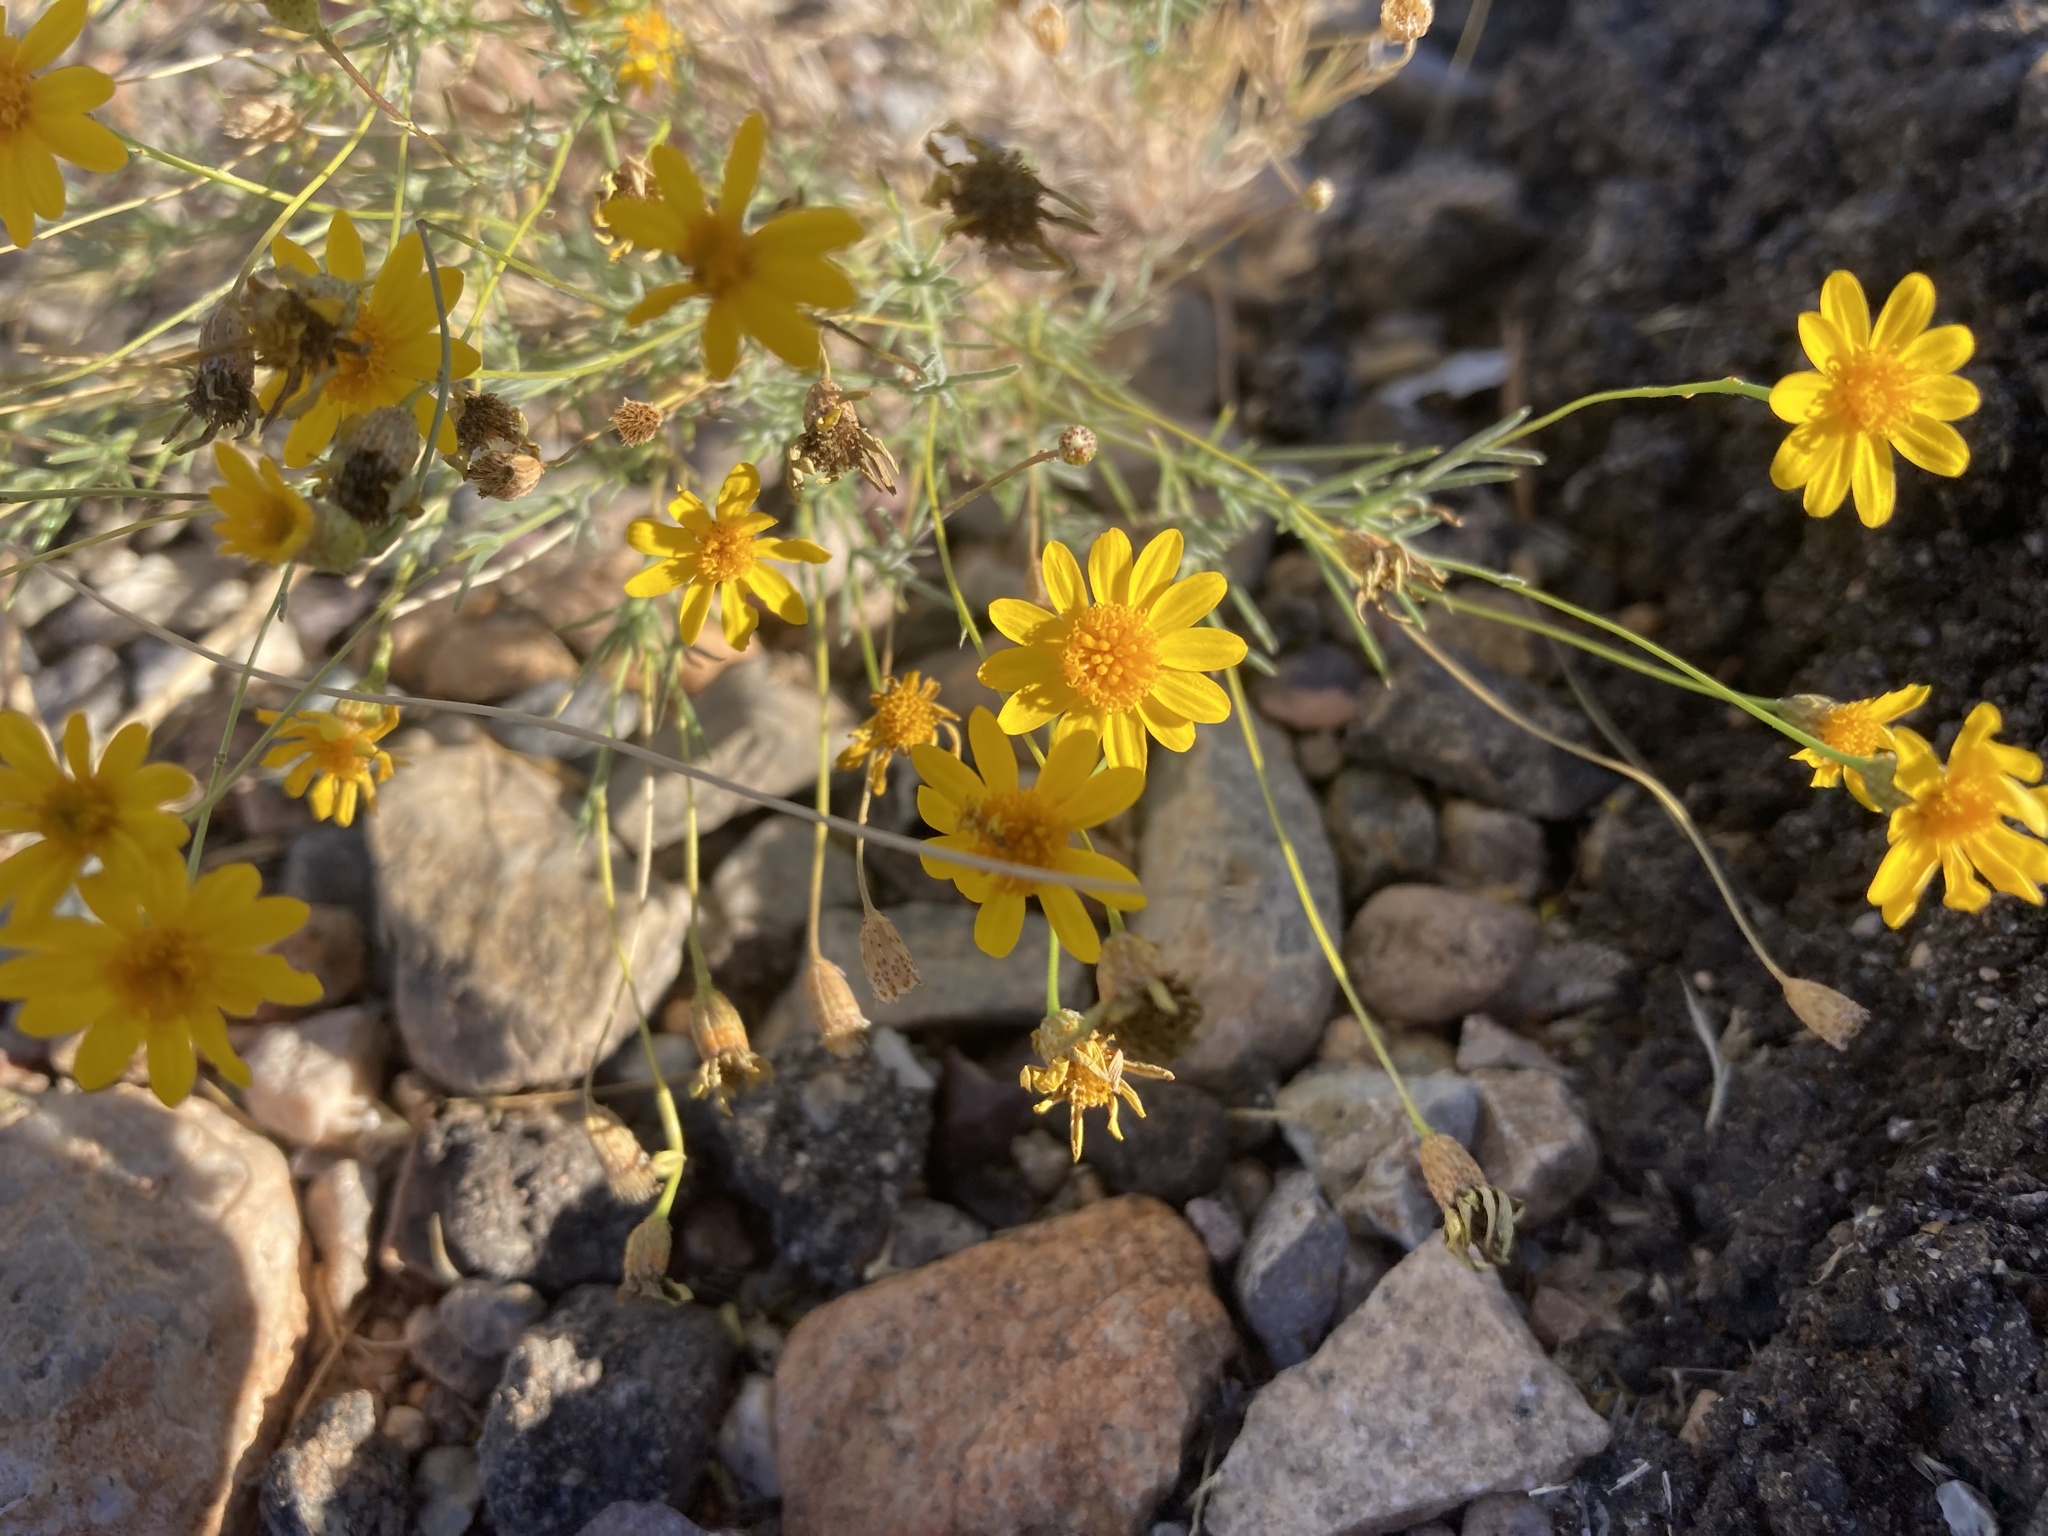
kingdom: Plantae
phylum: Tracheophyta
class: Magnoliopsida
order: Asterales
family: Asteraceae
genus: Thymophylla
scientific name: Thymophylla pentachaeta
